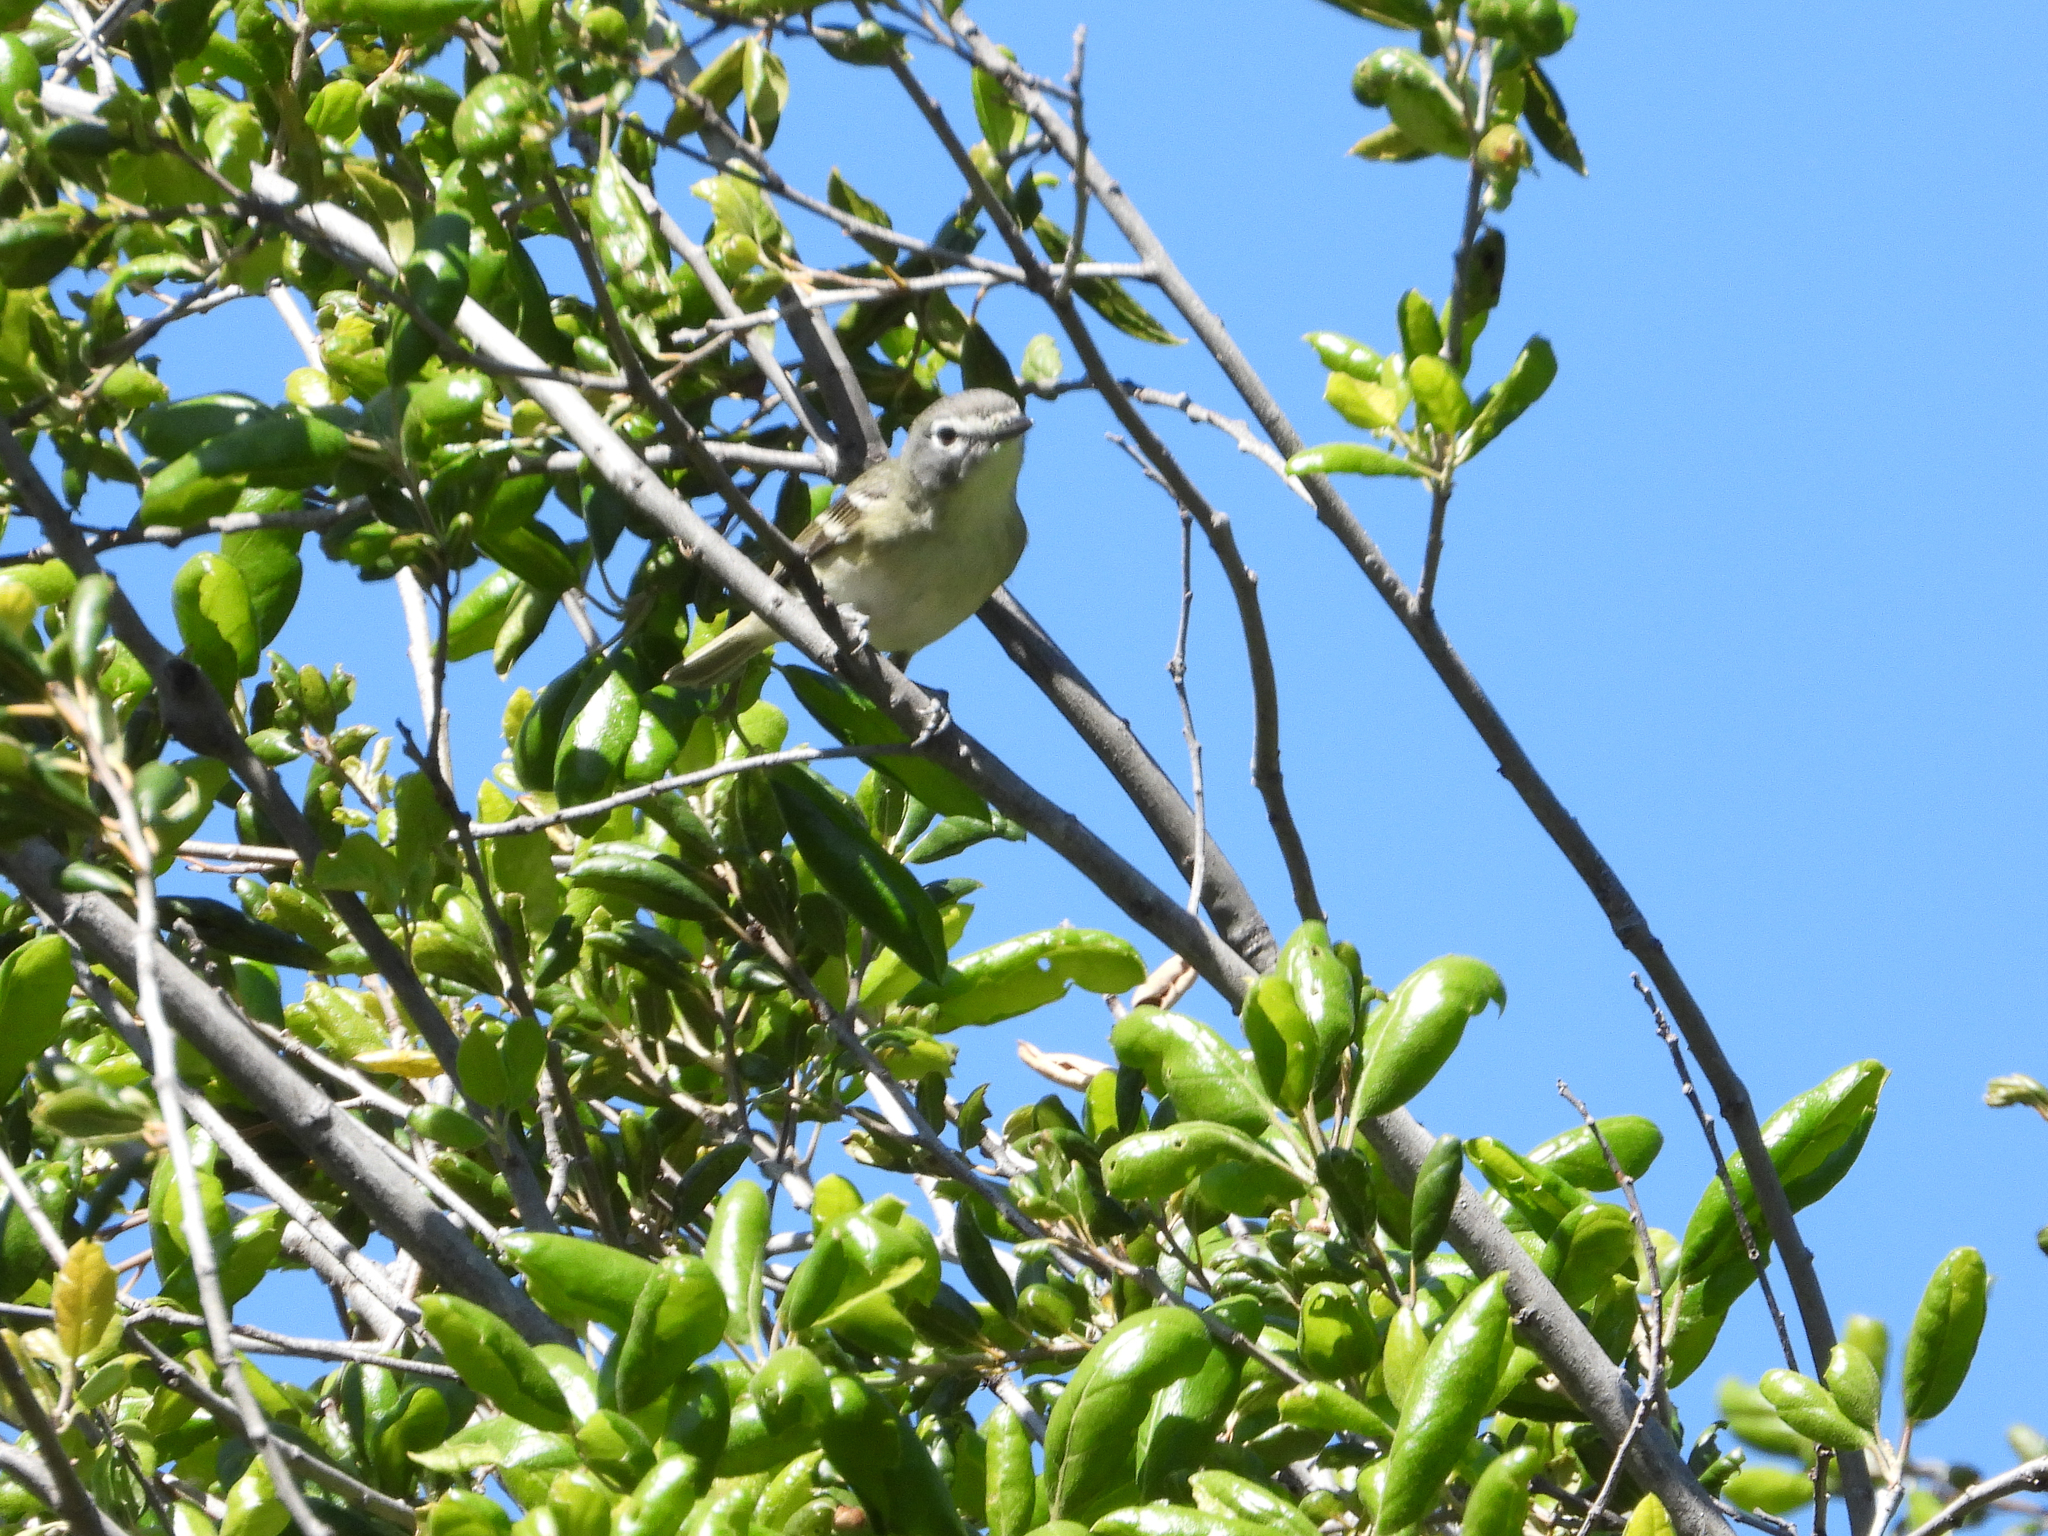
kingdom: Animalia
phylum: Chordata
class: Aves
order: Passeriformes
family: Vireonidae
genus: Vireo
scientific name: Vireo cassinii
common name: Cassin's vireo
